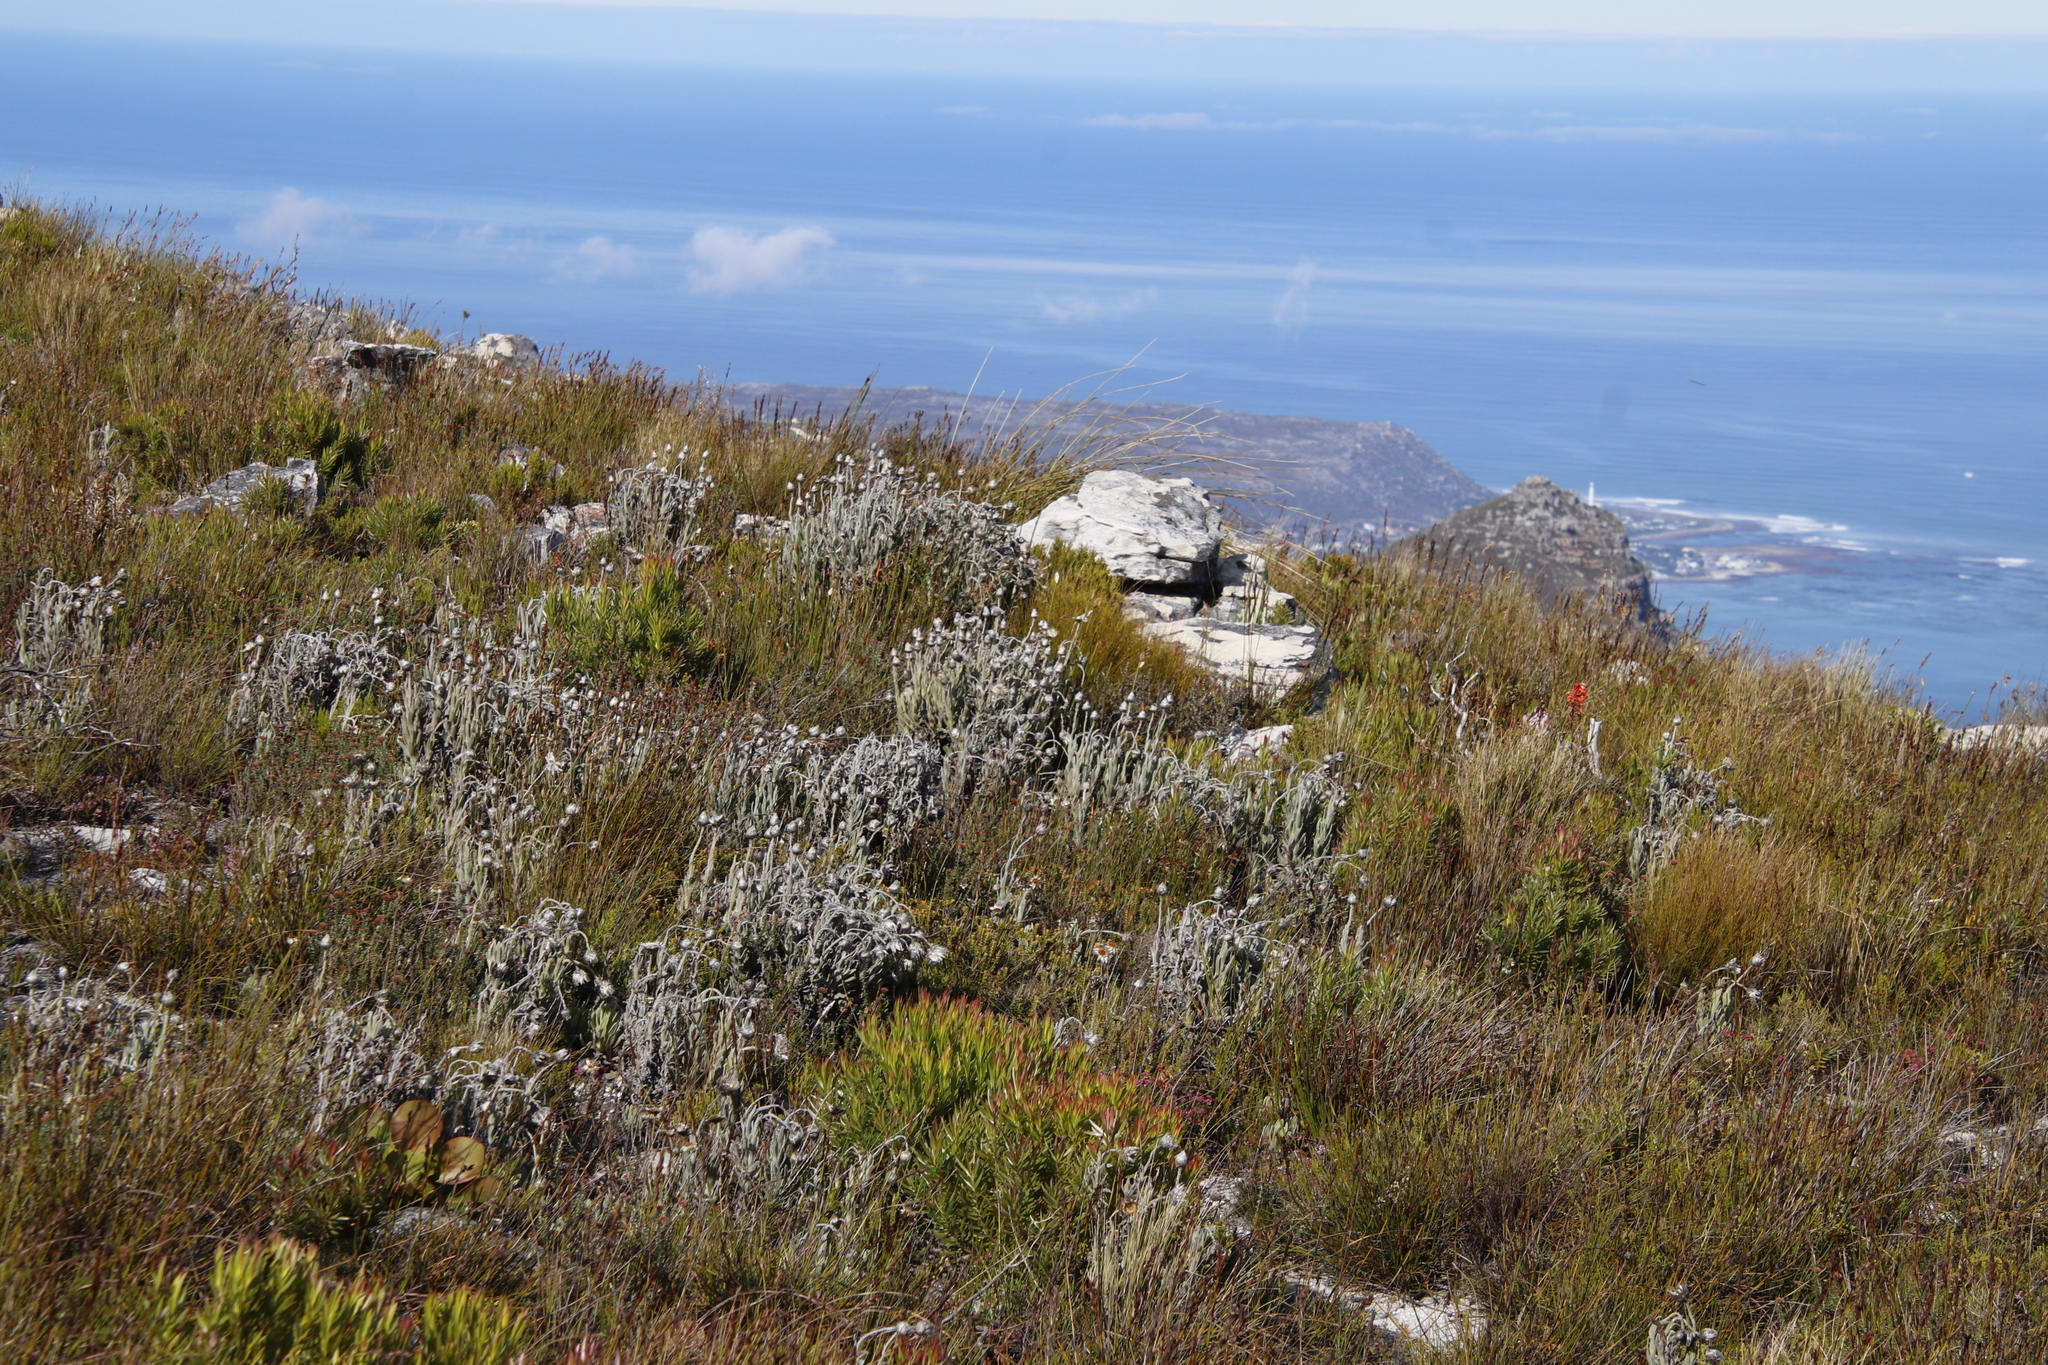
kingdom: Plantae
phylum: Tracheophyta
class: Magnoliopsida
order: Asterales
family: Asteraceae
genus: Syncarpha
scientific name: Syncarpha vestita
